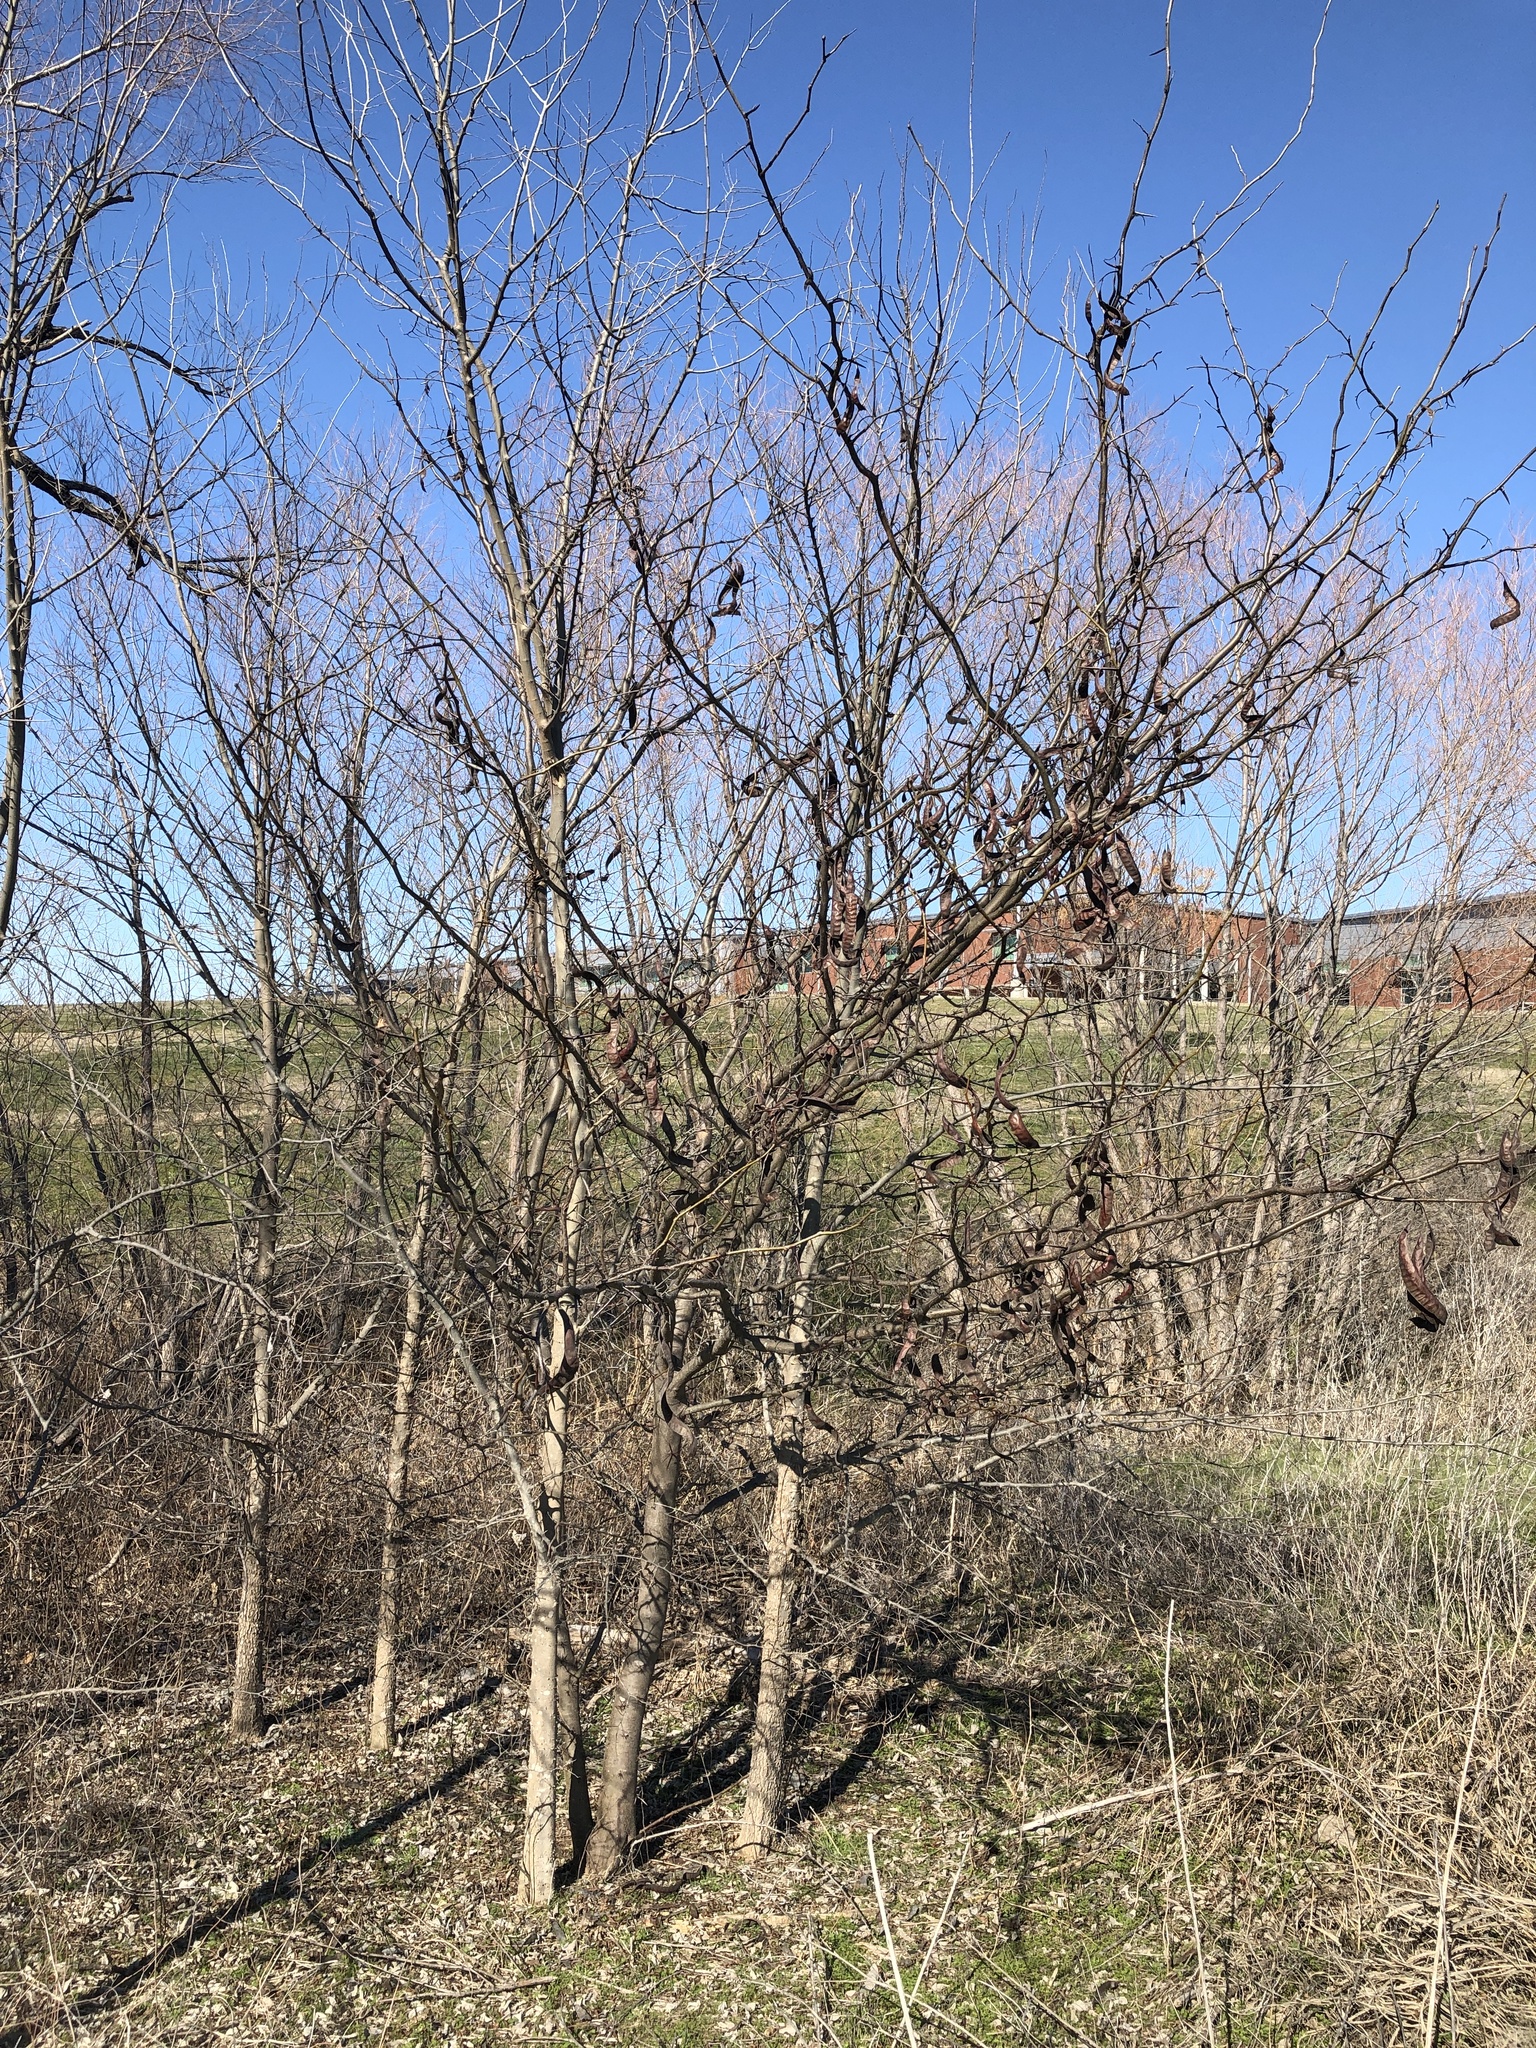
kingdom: Plantae
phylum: Tracheophyta
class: Magnoliopsida
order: Fabales
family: Fabaceae
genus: Gleditsia
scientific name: Gleditsia triacanthos
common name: Common honeylocust
